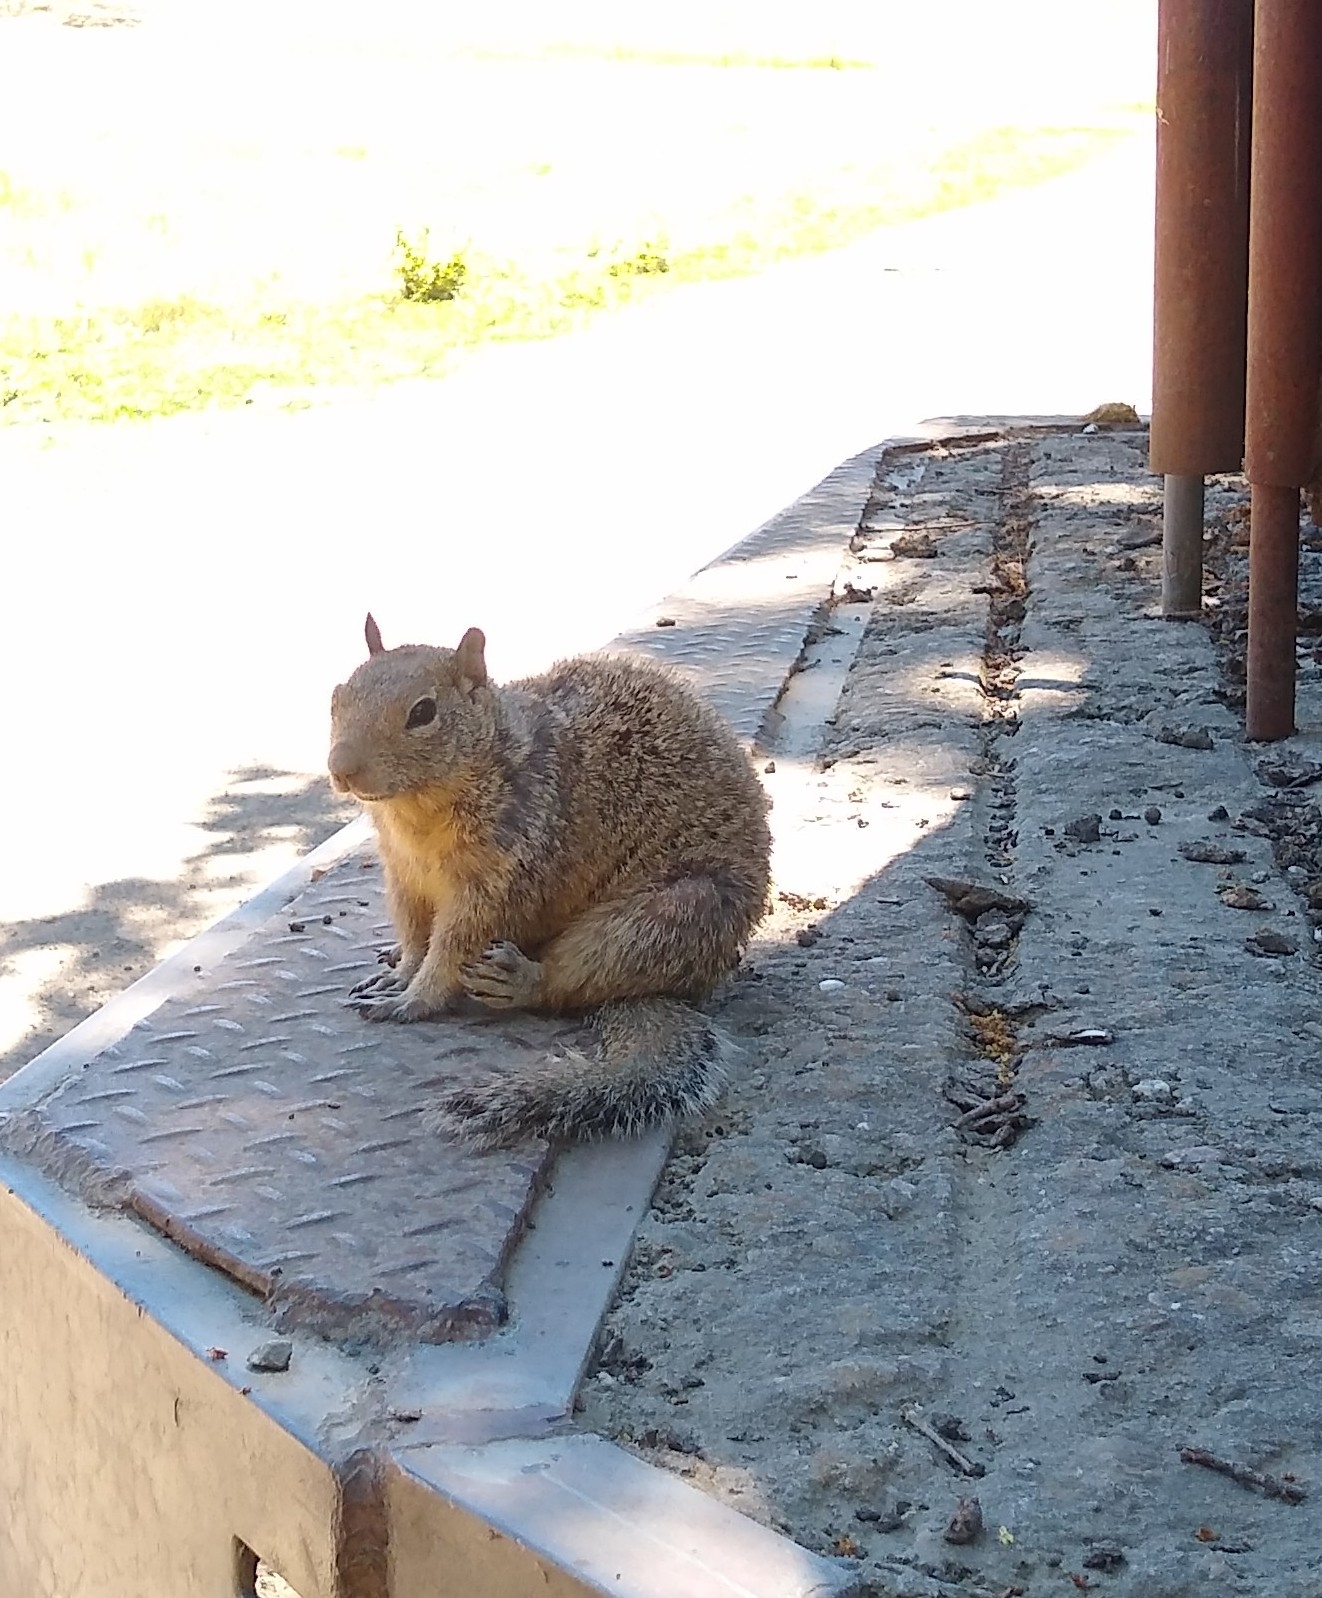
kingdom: Animalia
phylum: Chordata
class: Mammalia
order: Rodentia
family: Sciuridae
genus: Otospermophilus
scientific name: Otospermophilus beecheyi
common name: California ground squirrel
